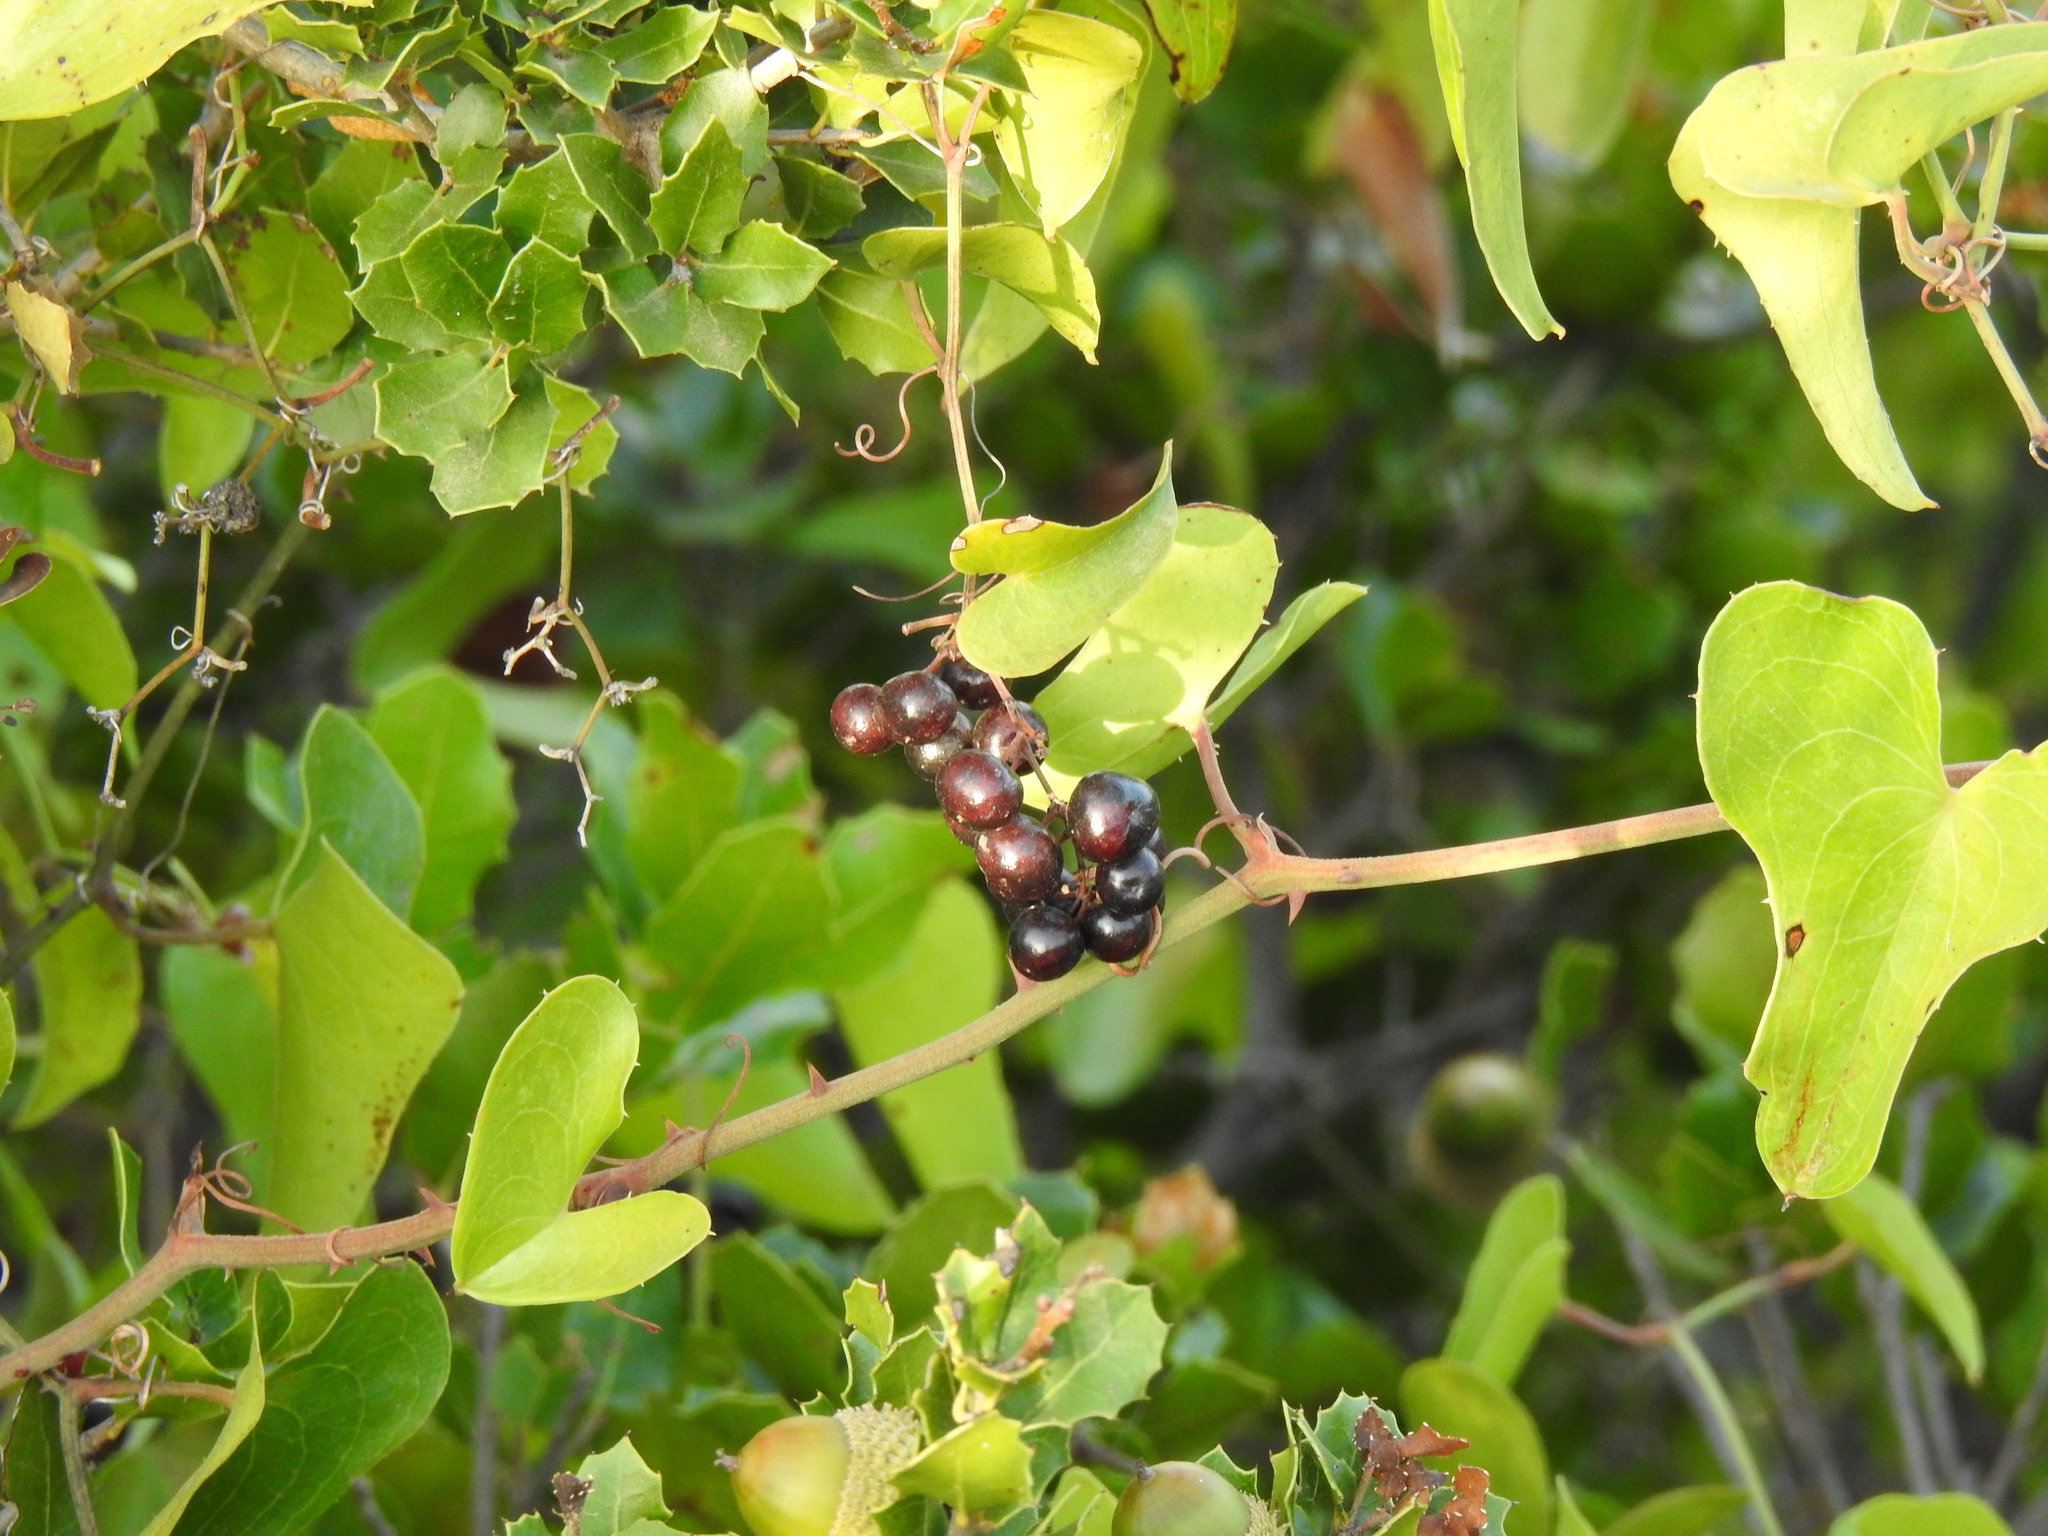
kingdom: Plantae
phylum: Tracheophyta
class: Liliopsida
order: Liliales
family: Smilacaceae
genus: Smilax
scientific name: Smilax aspera
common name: Common smilax
